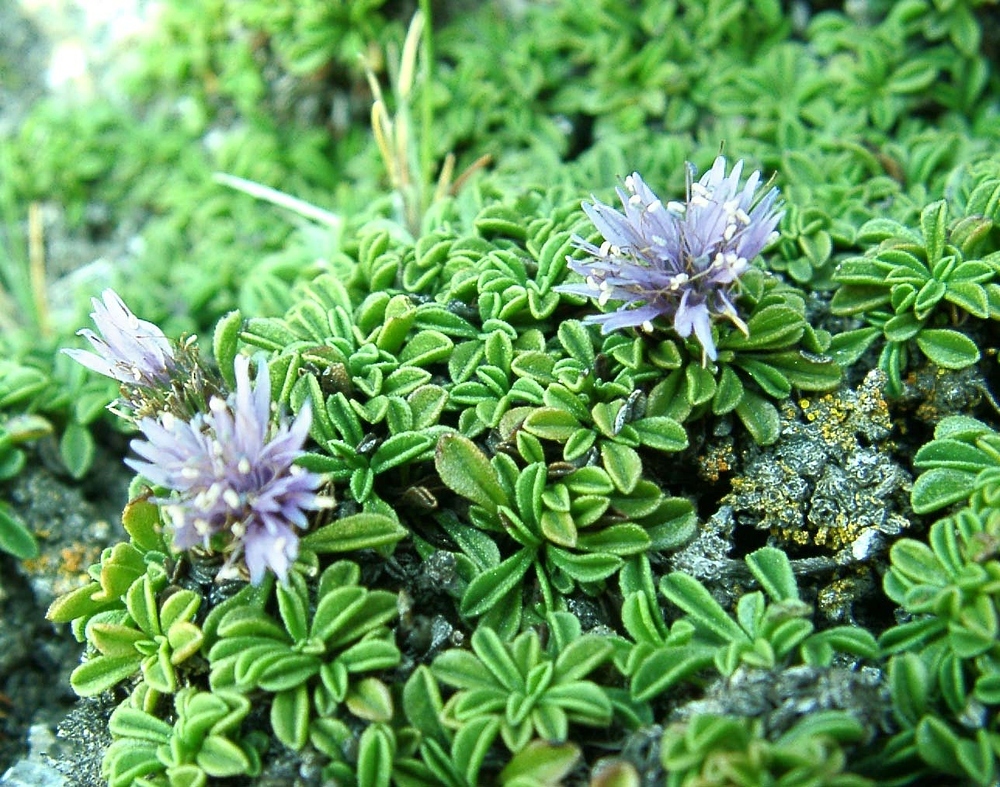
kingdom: Plantae
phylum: Tracheophyta
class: Magnoliopsida
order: Lamiales
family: Plantaginaceae
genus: Globularia
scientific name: Globularia repens
